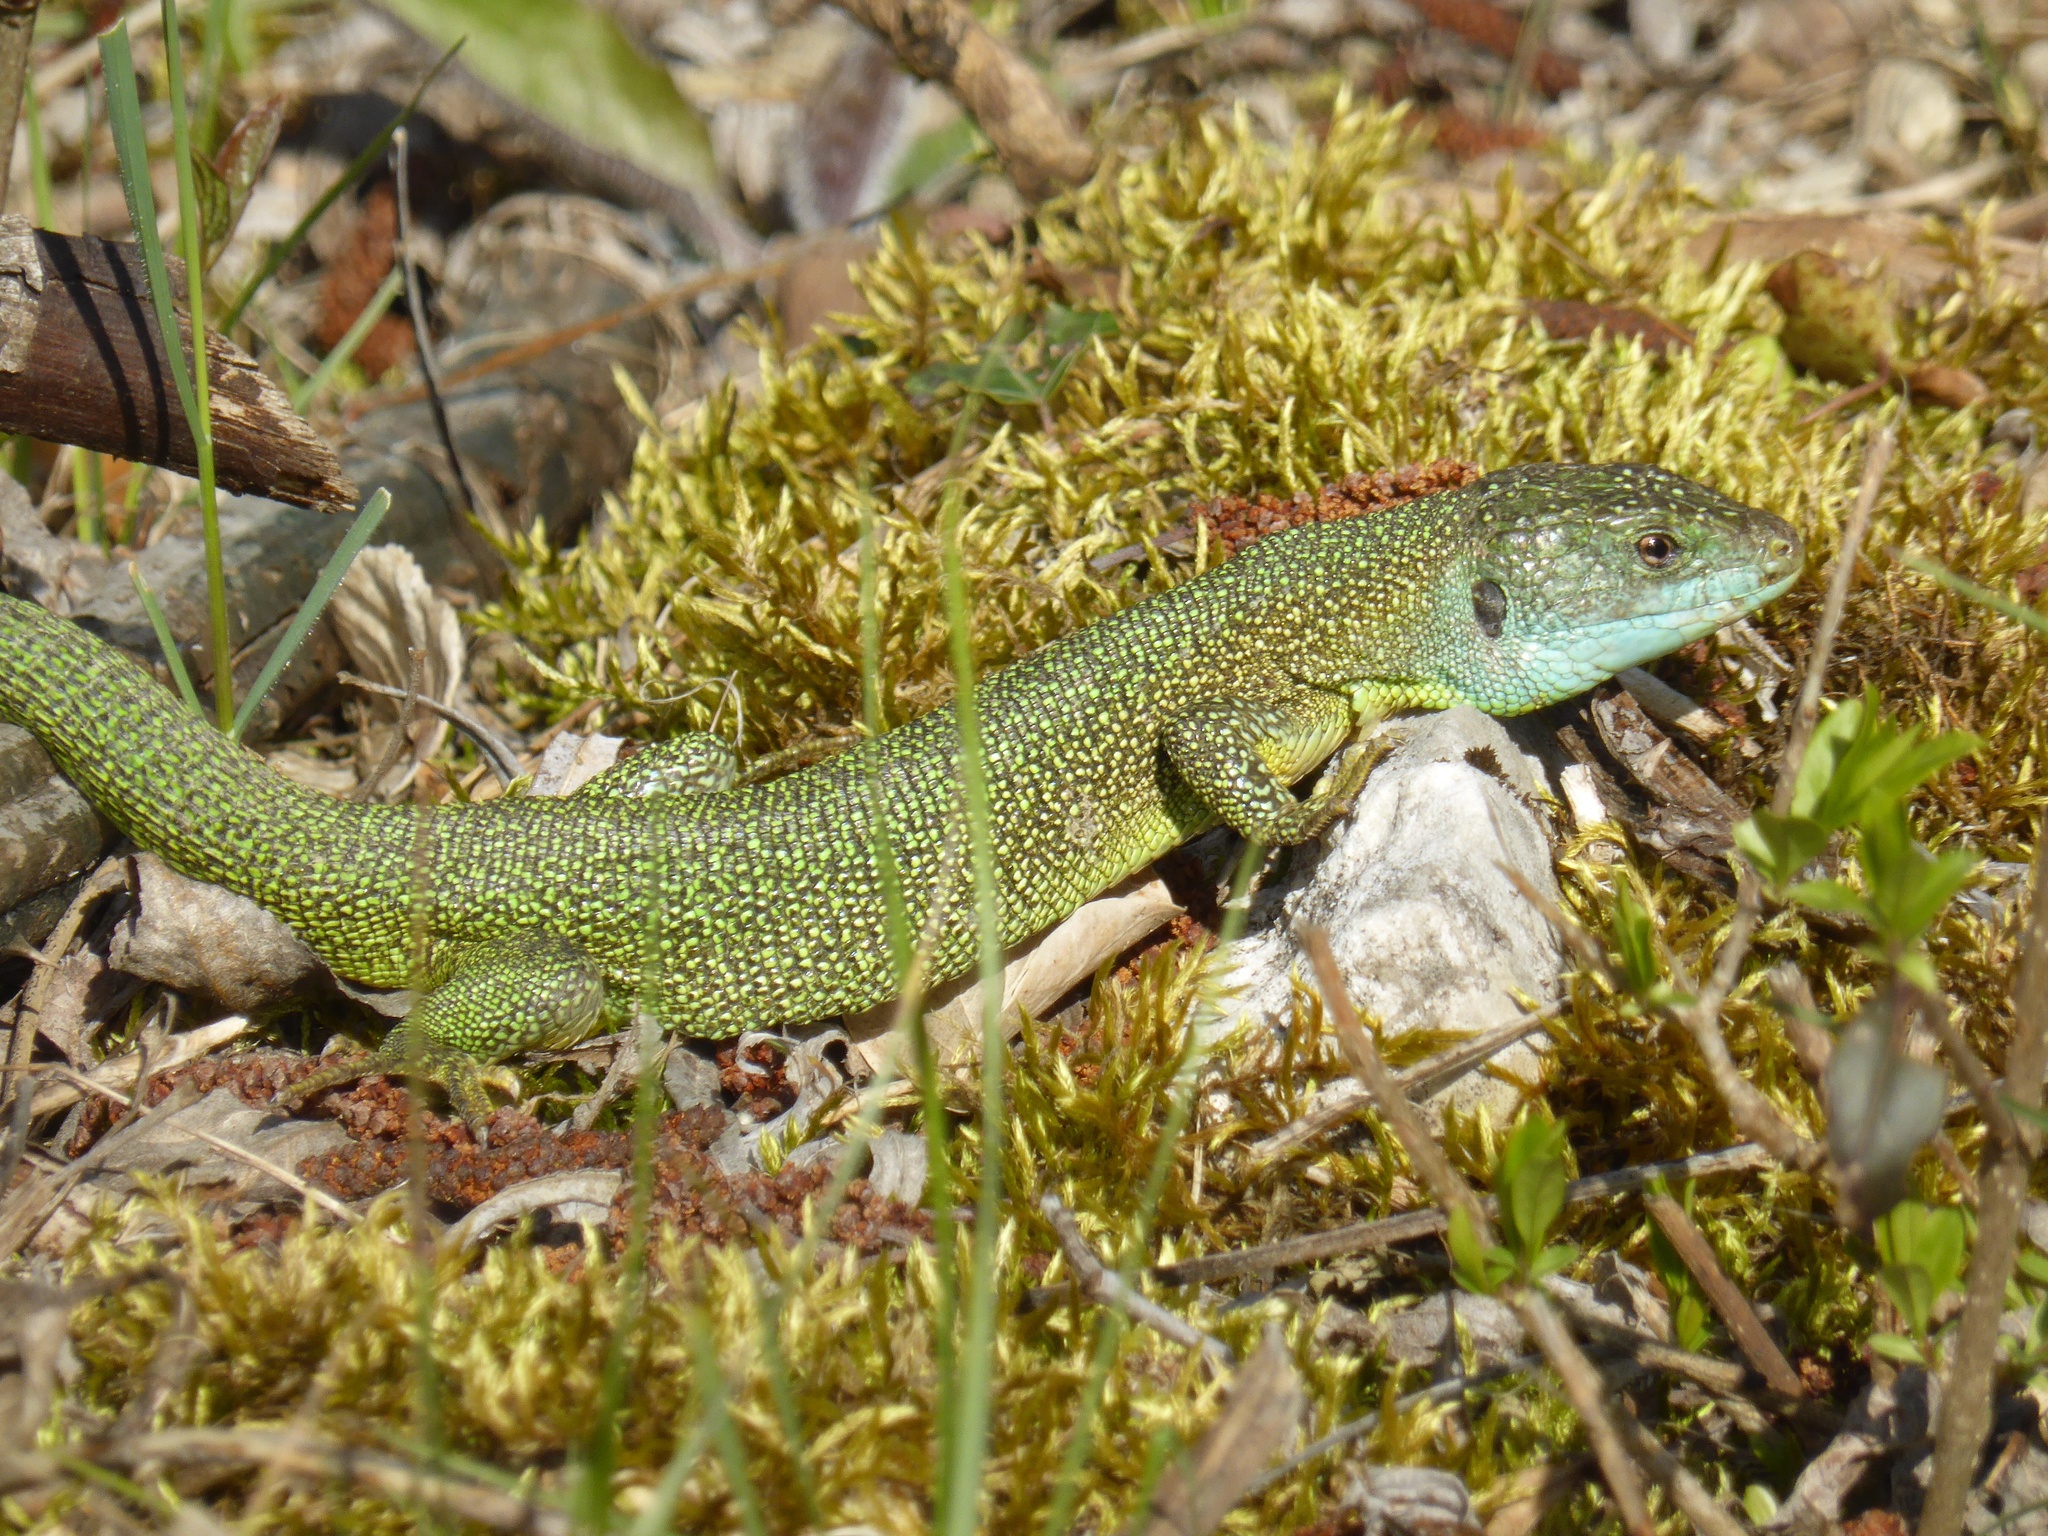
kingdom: Animalia
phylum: Chordata
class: Squamata
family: Lacertidae
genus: Lacerta
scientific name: Lacerta bilineata
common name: Western green lizard
